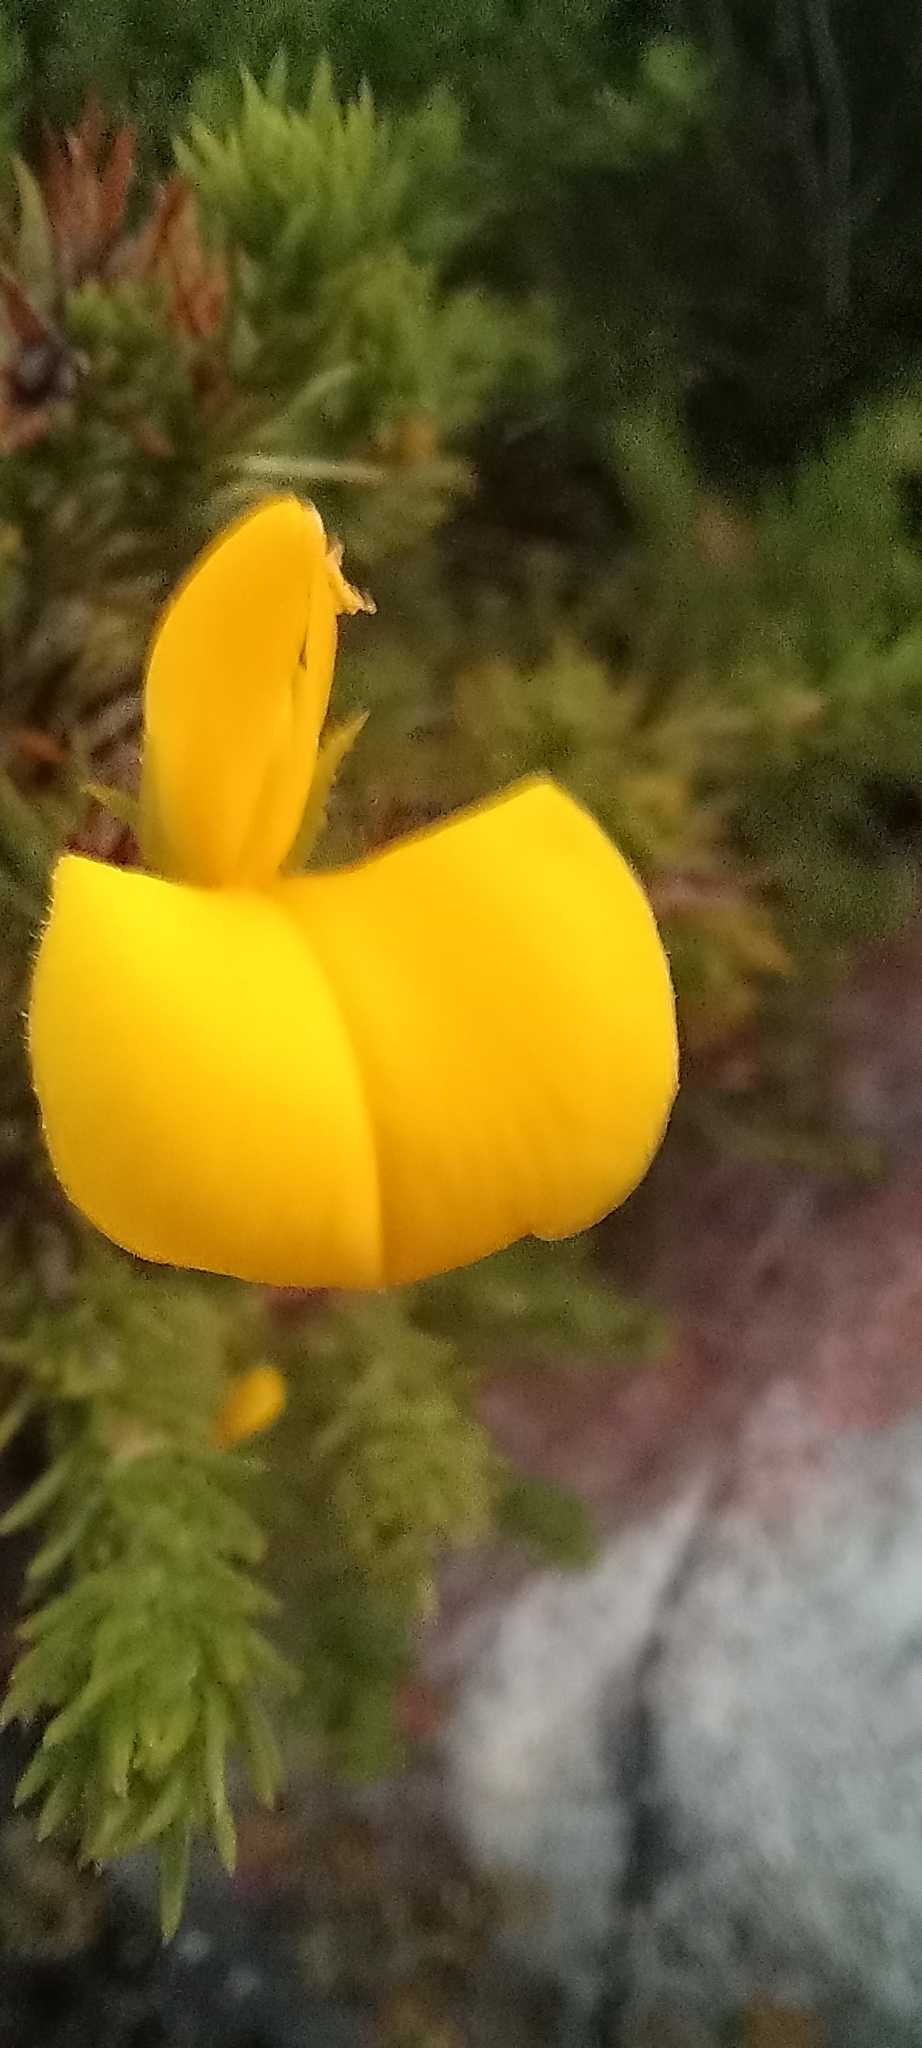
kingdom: Plantae
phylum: Tracheophyta
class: Magnoliopsida
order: Fabales
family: Fabaceae
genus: Aspalathus
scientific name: Aspalathus ciliaris
